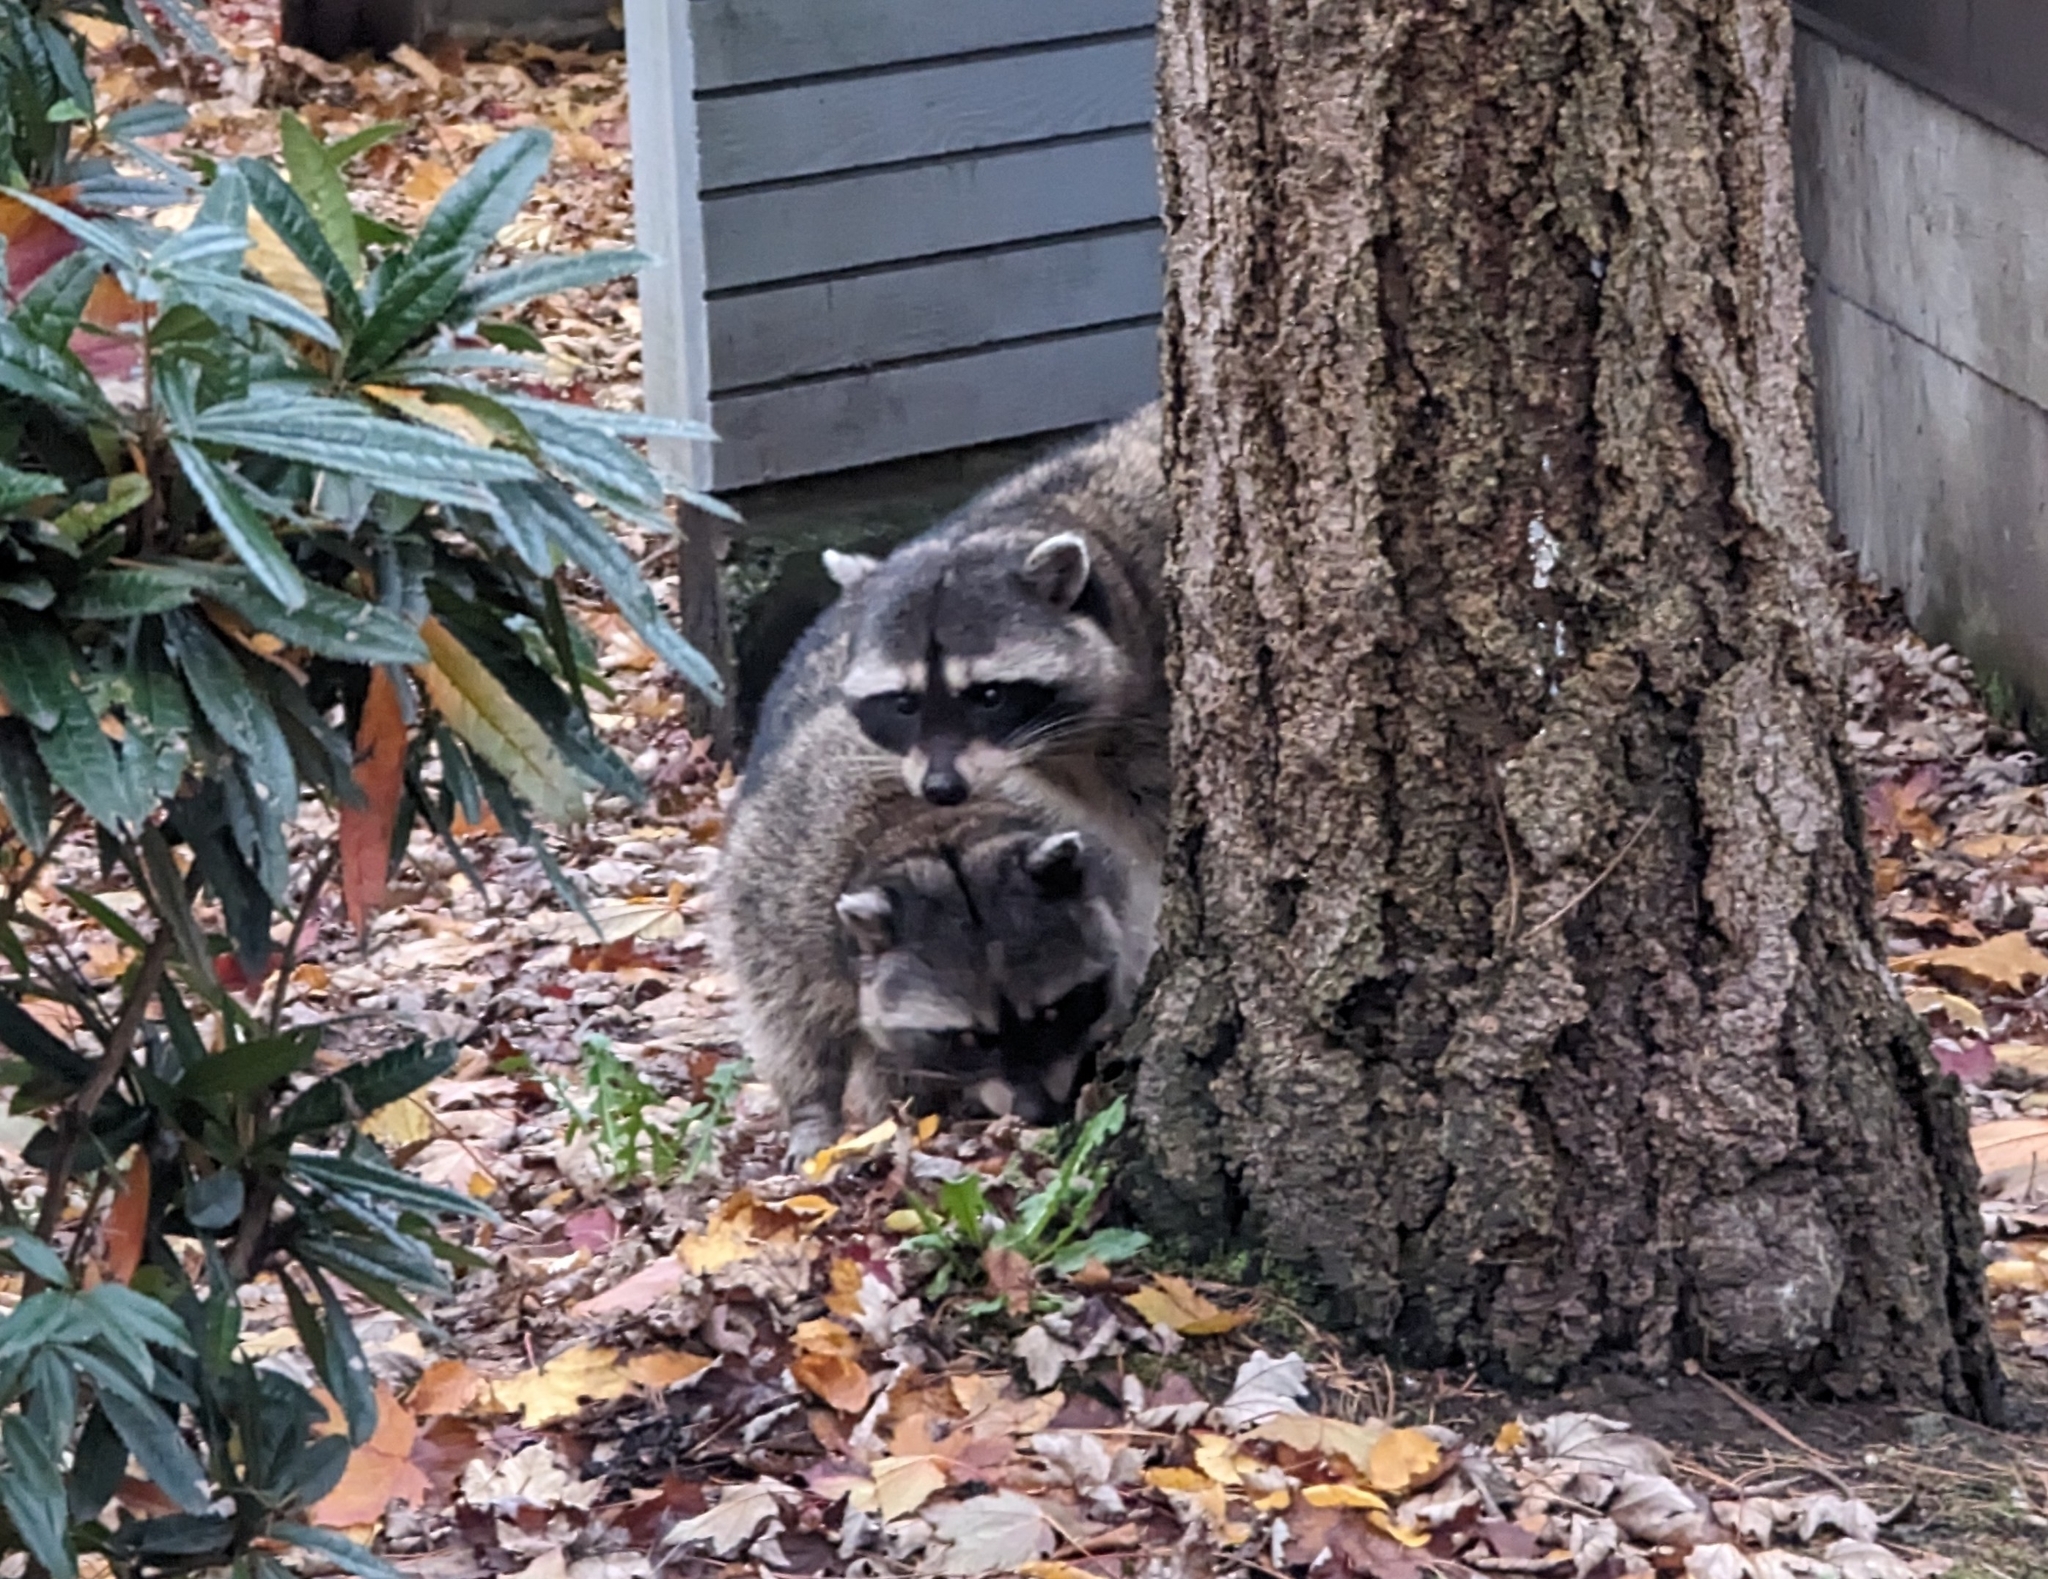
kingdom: Animalia
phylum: Chordata
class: Mammalia
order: Carnivora
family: Procyonidae
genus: Procyon
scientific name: Procyon lotor
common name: Raccoon
